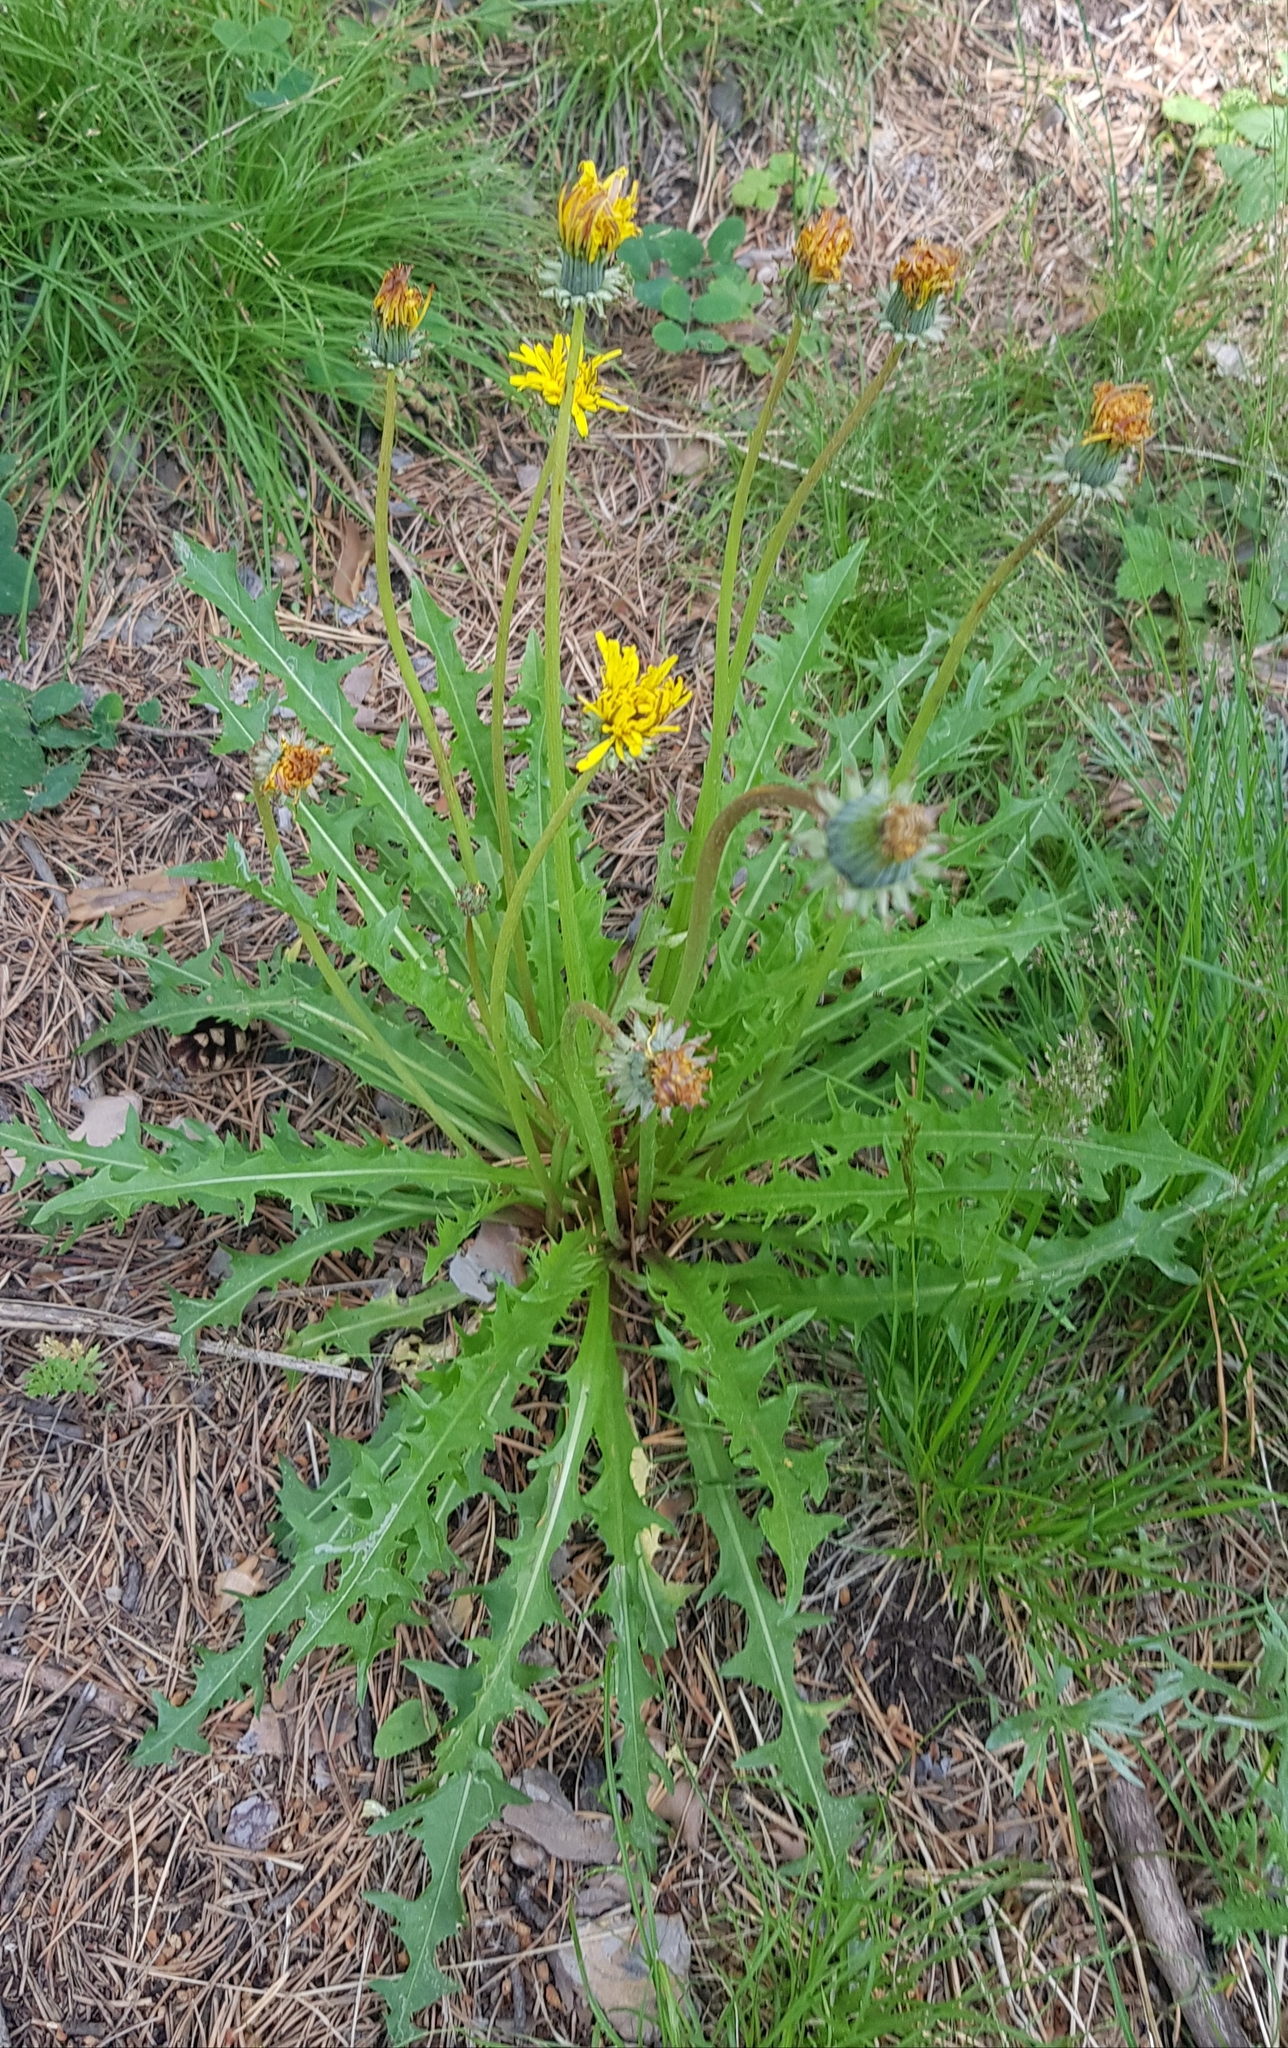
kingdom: Plantae
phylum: Tracheophyta
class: Magnoliopsida
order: Asterales
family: Asteraceae
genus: Taraxacum
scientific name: Taraxacum officinale
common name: Common dandelion
